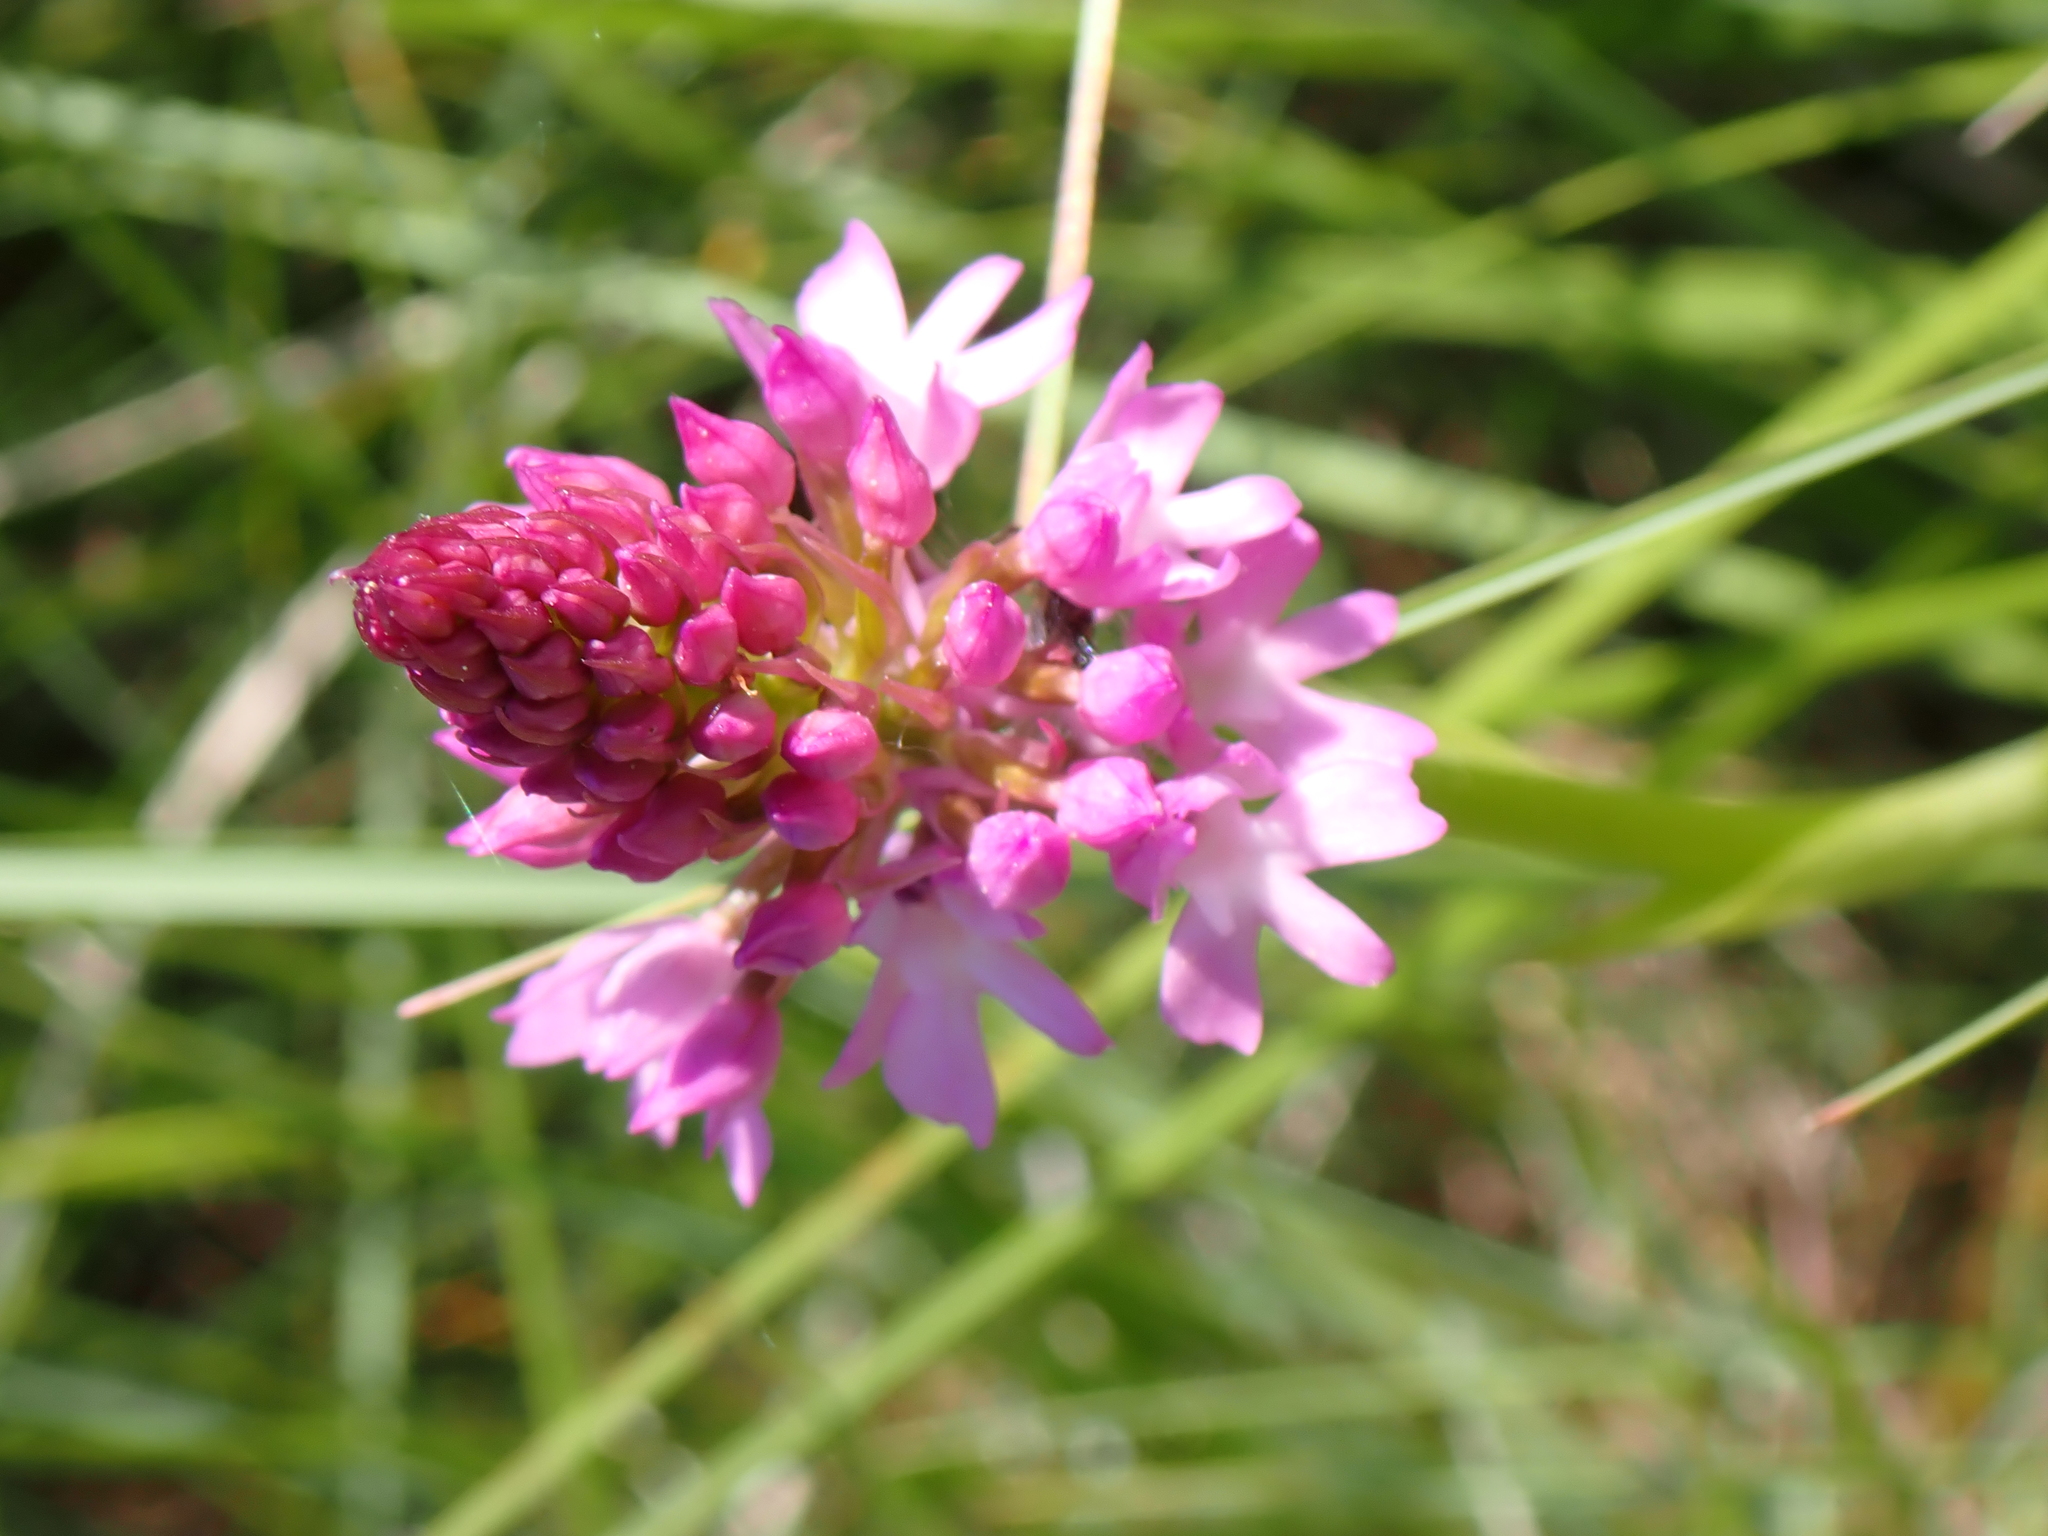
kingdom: Plantae
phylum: Tracheophyta
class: Liliopsida
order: Asparagales
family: Orchidaceae
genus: Anacamptis
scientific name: Anacamptis pyramidalis
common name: Pyramidal orchid
